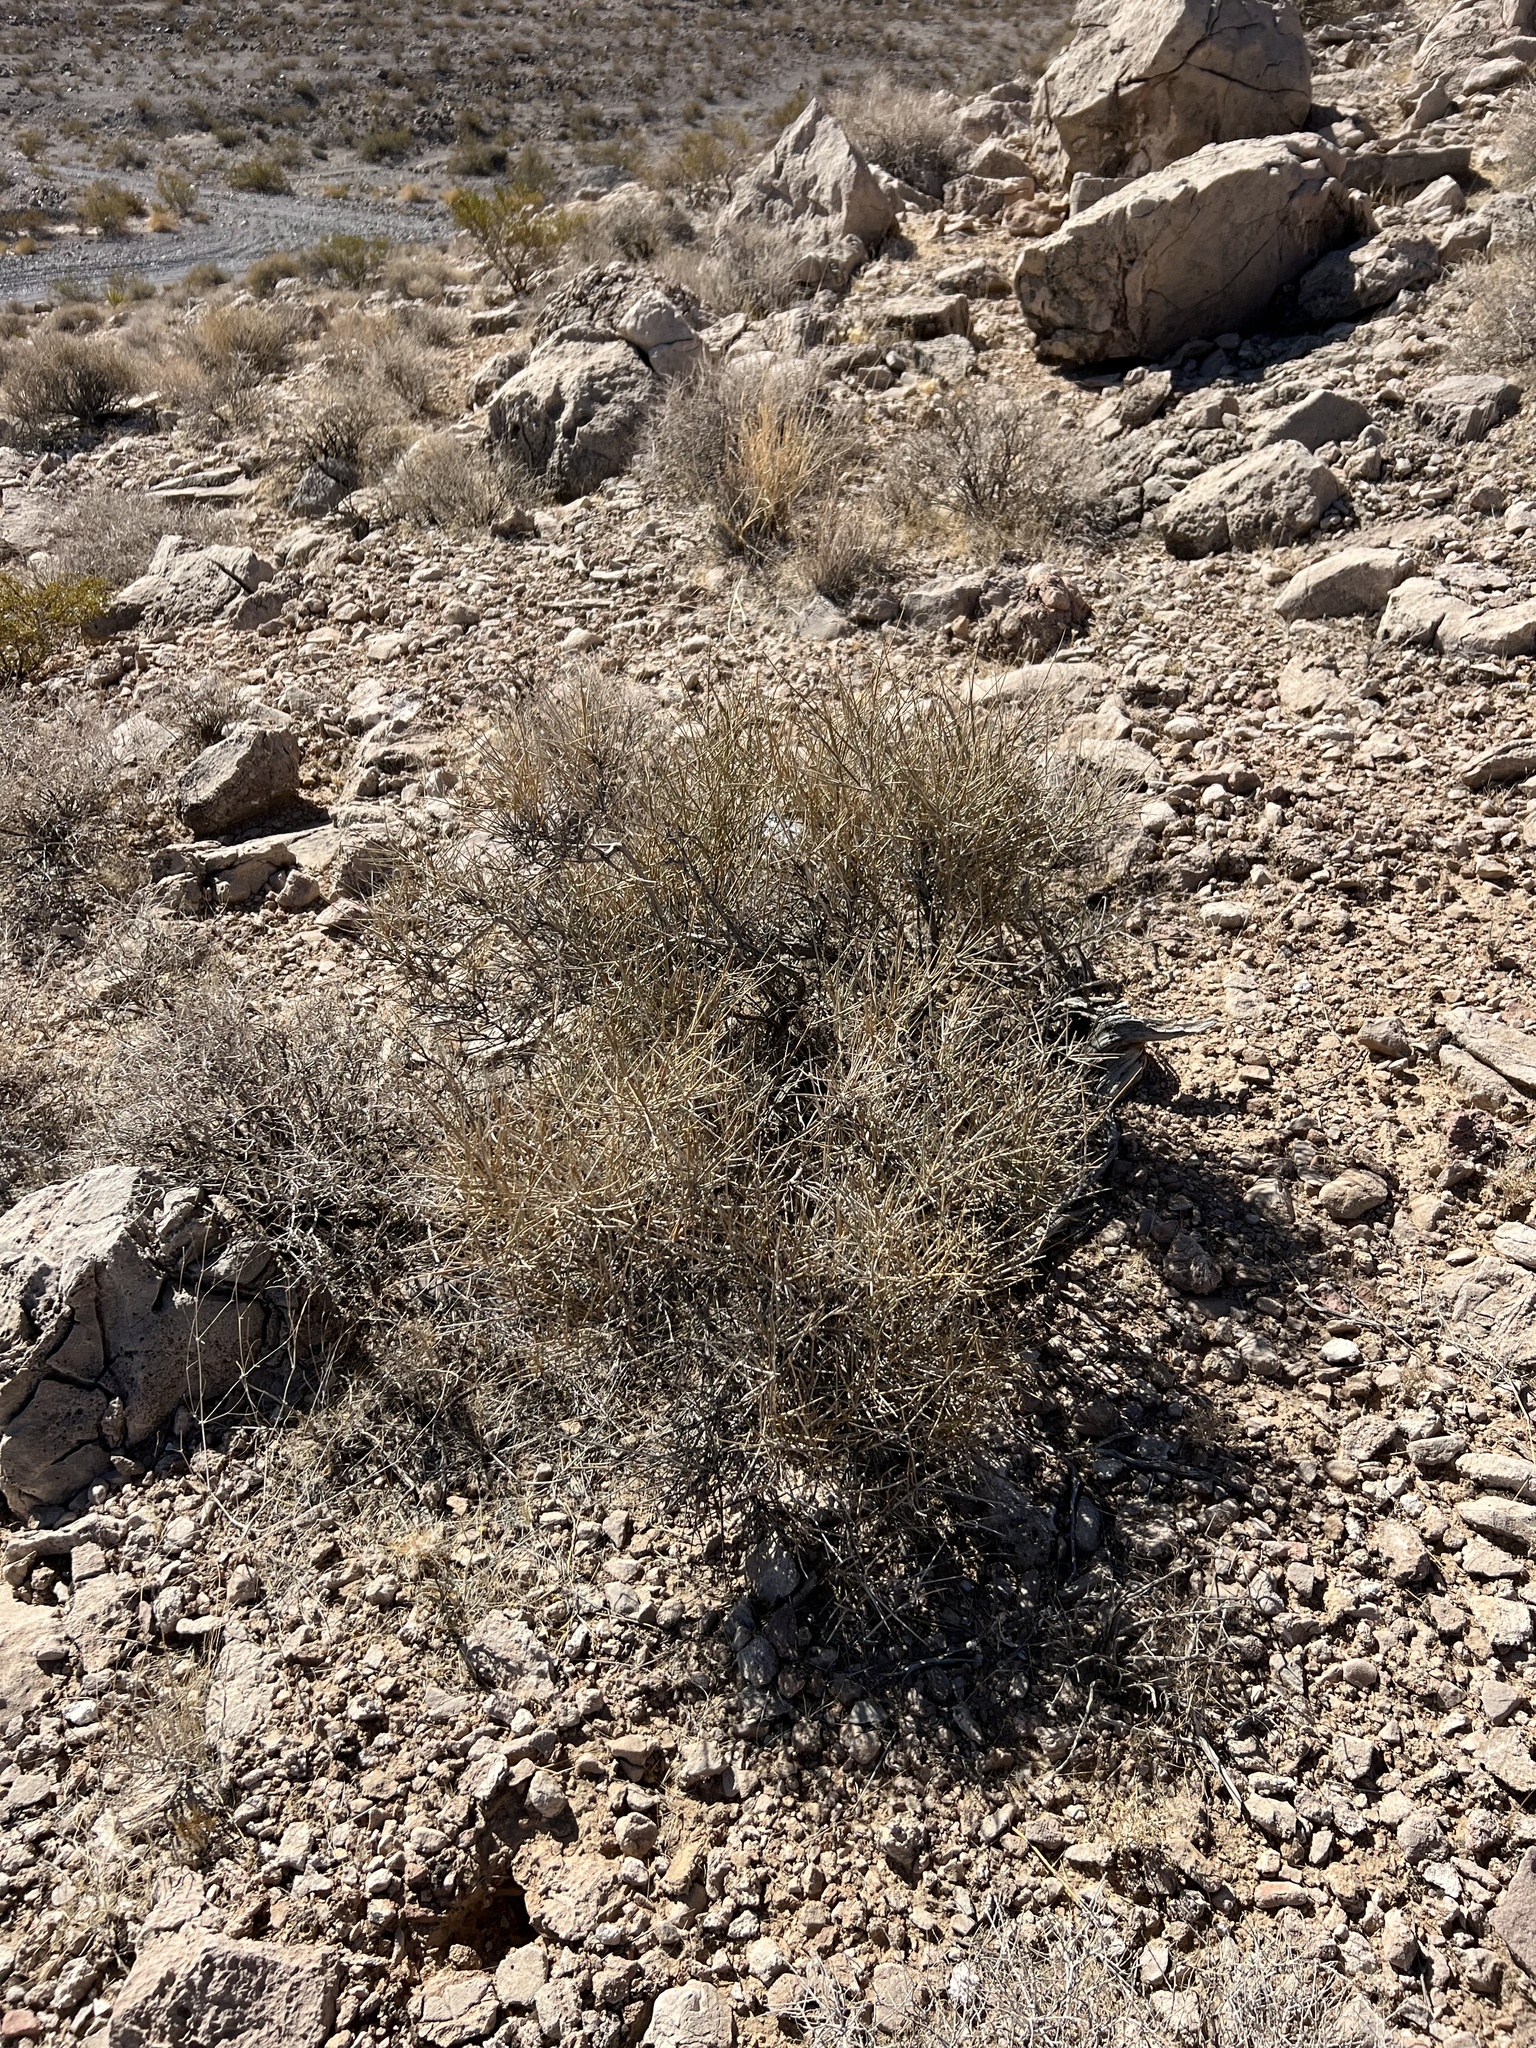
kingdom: Plantae
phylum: Tracheophyta
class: Gnetopsida
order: Ephedrales
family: Ephedraceae
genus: Ephedra
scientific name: Ephedra nevadensis
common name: Gray ephedra
